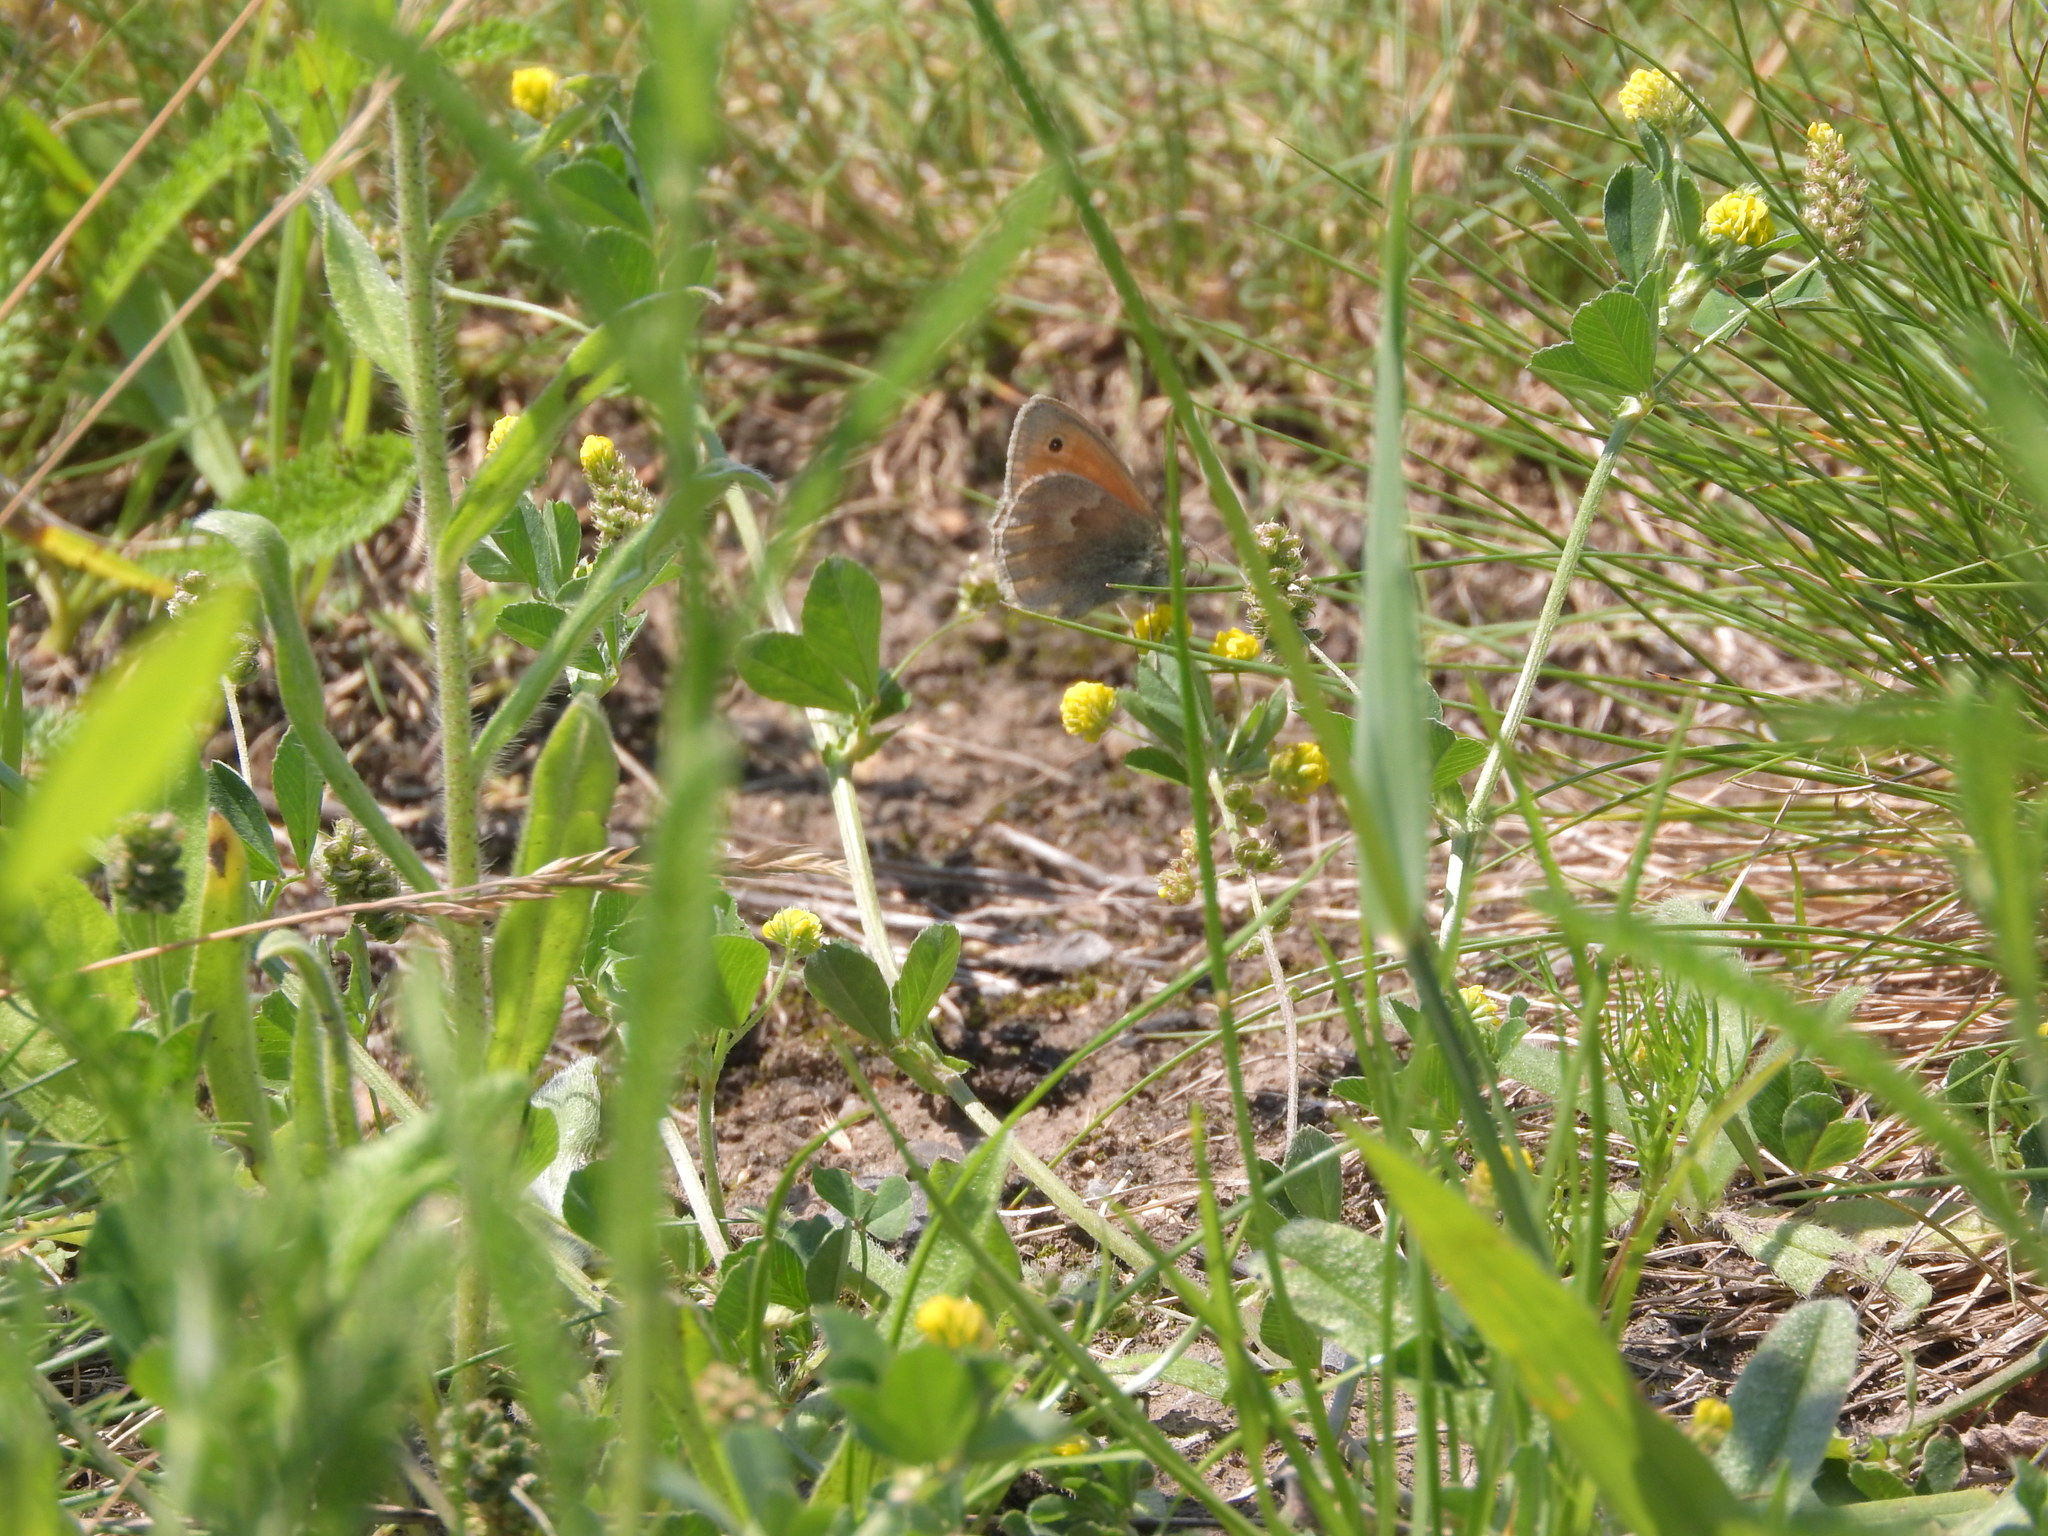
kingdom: Animalia
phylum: Arthropoda
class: Insecta
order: Lepidoptera
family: Nymphalidae
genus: Coenonympha
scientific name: Coenonympha pamphilus
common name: Small heath
